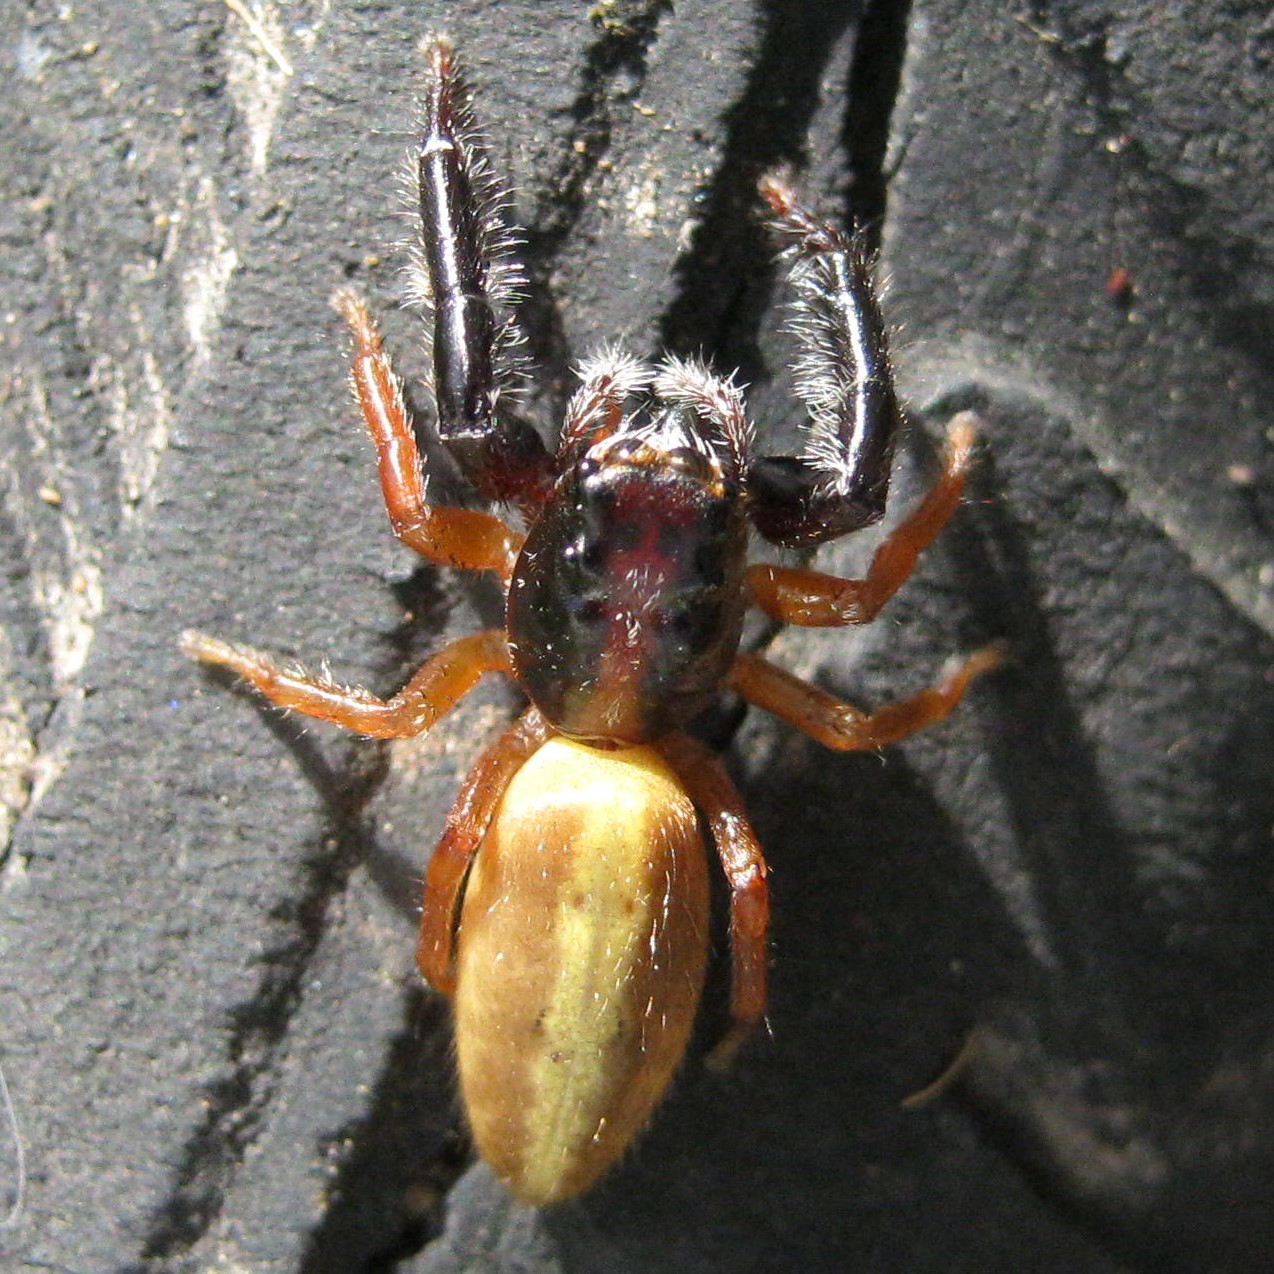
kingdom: Animalia
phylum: Arthropoda
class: Arachnida
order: Araneae
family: Salticidae
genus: Trite
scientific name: Trite planiceps
